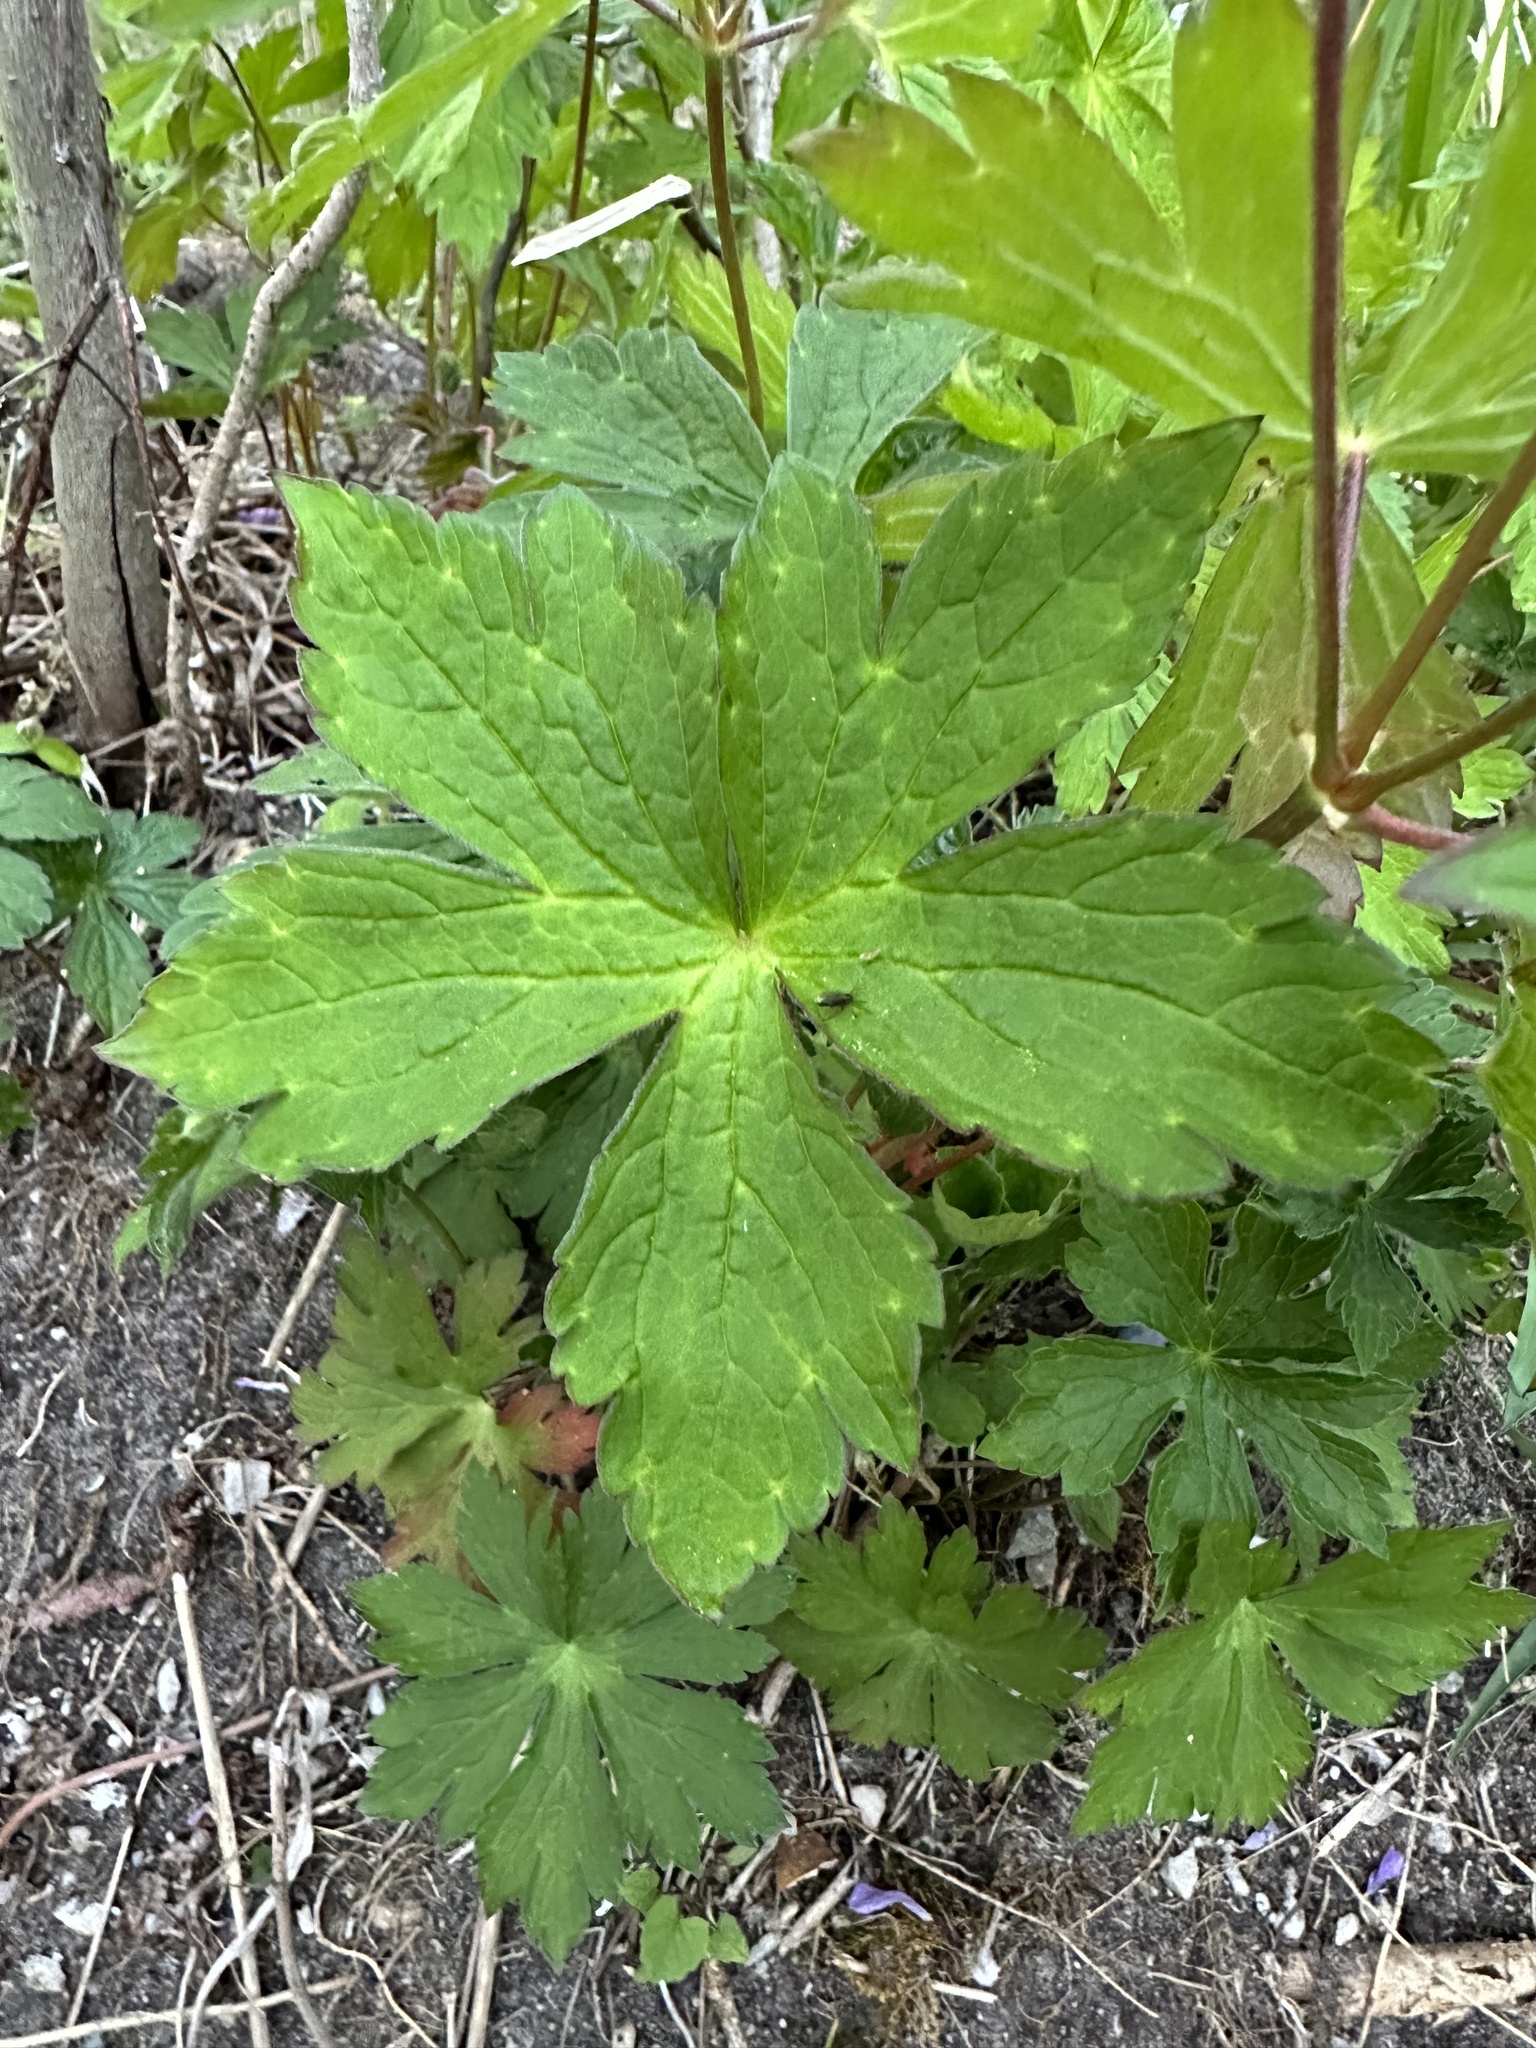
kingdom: Plantae
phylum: Tracheophyta
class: Magnoliopsida
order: Geraniales
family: Geraniaceae
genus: Geranium
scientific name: Geranium maculatum
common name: Spotted geranium
